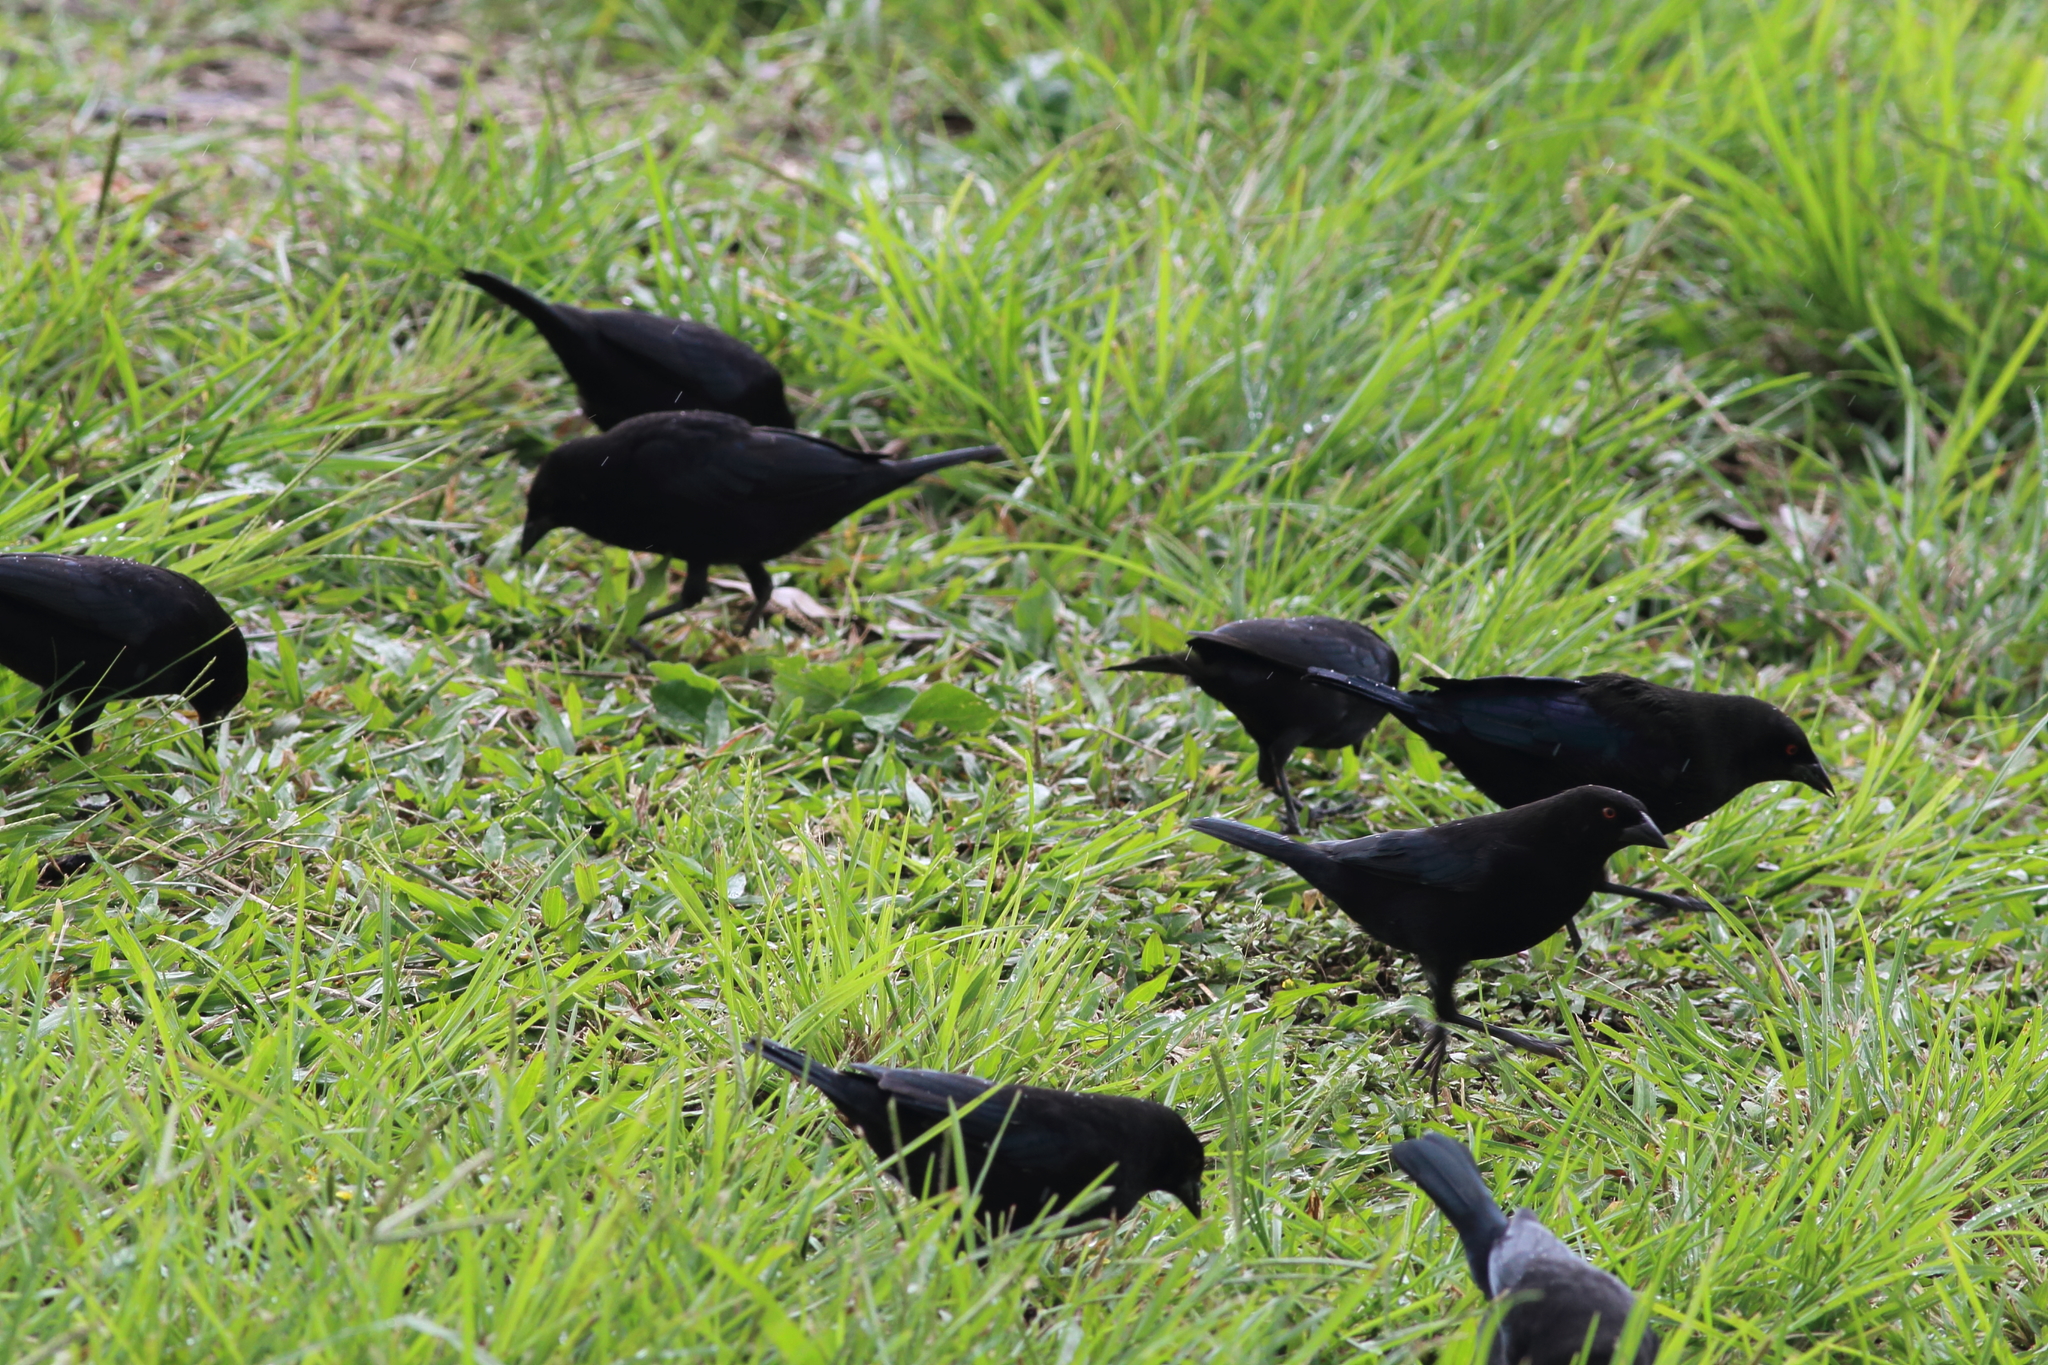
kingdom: Animalia
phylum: Chordata
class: Aves
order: Passeriformes
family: Icteridae
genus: Molothrus
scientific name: Molothrus aeneus
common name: Bronzed cowbird
